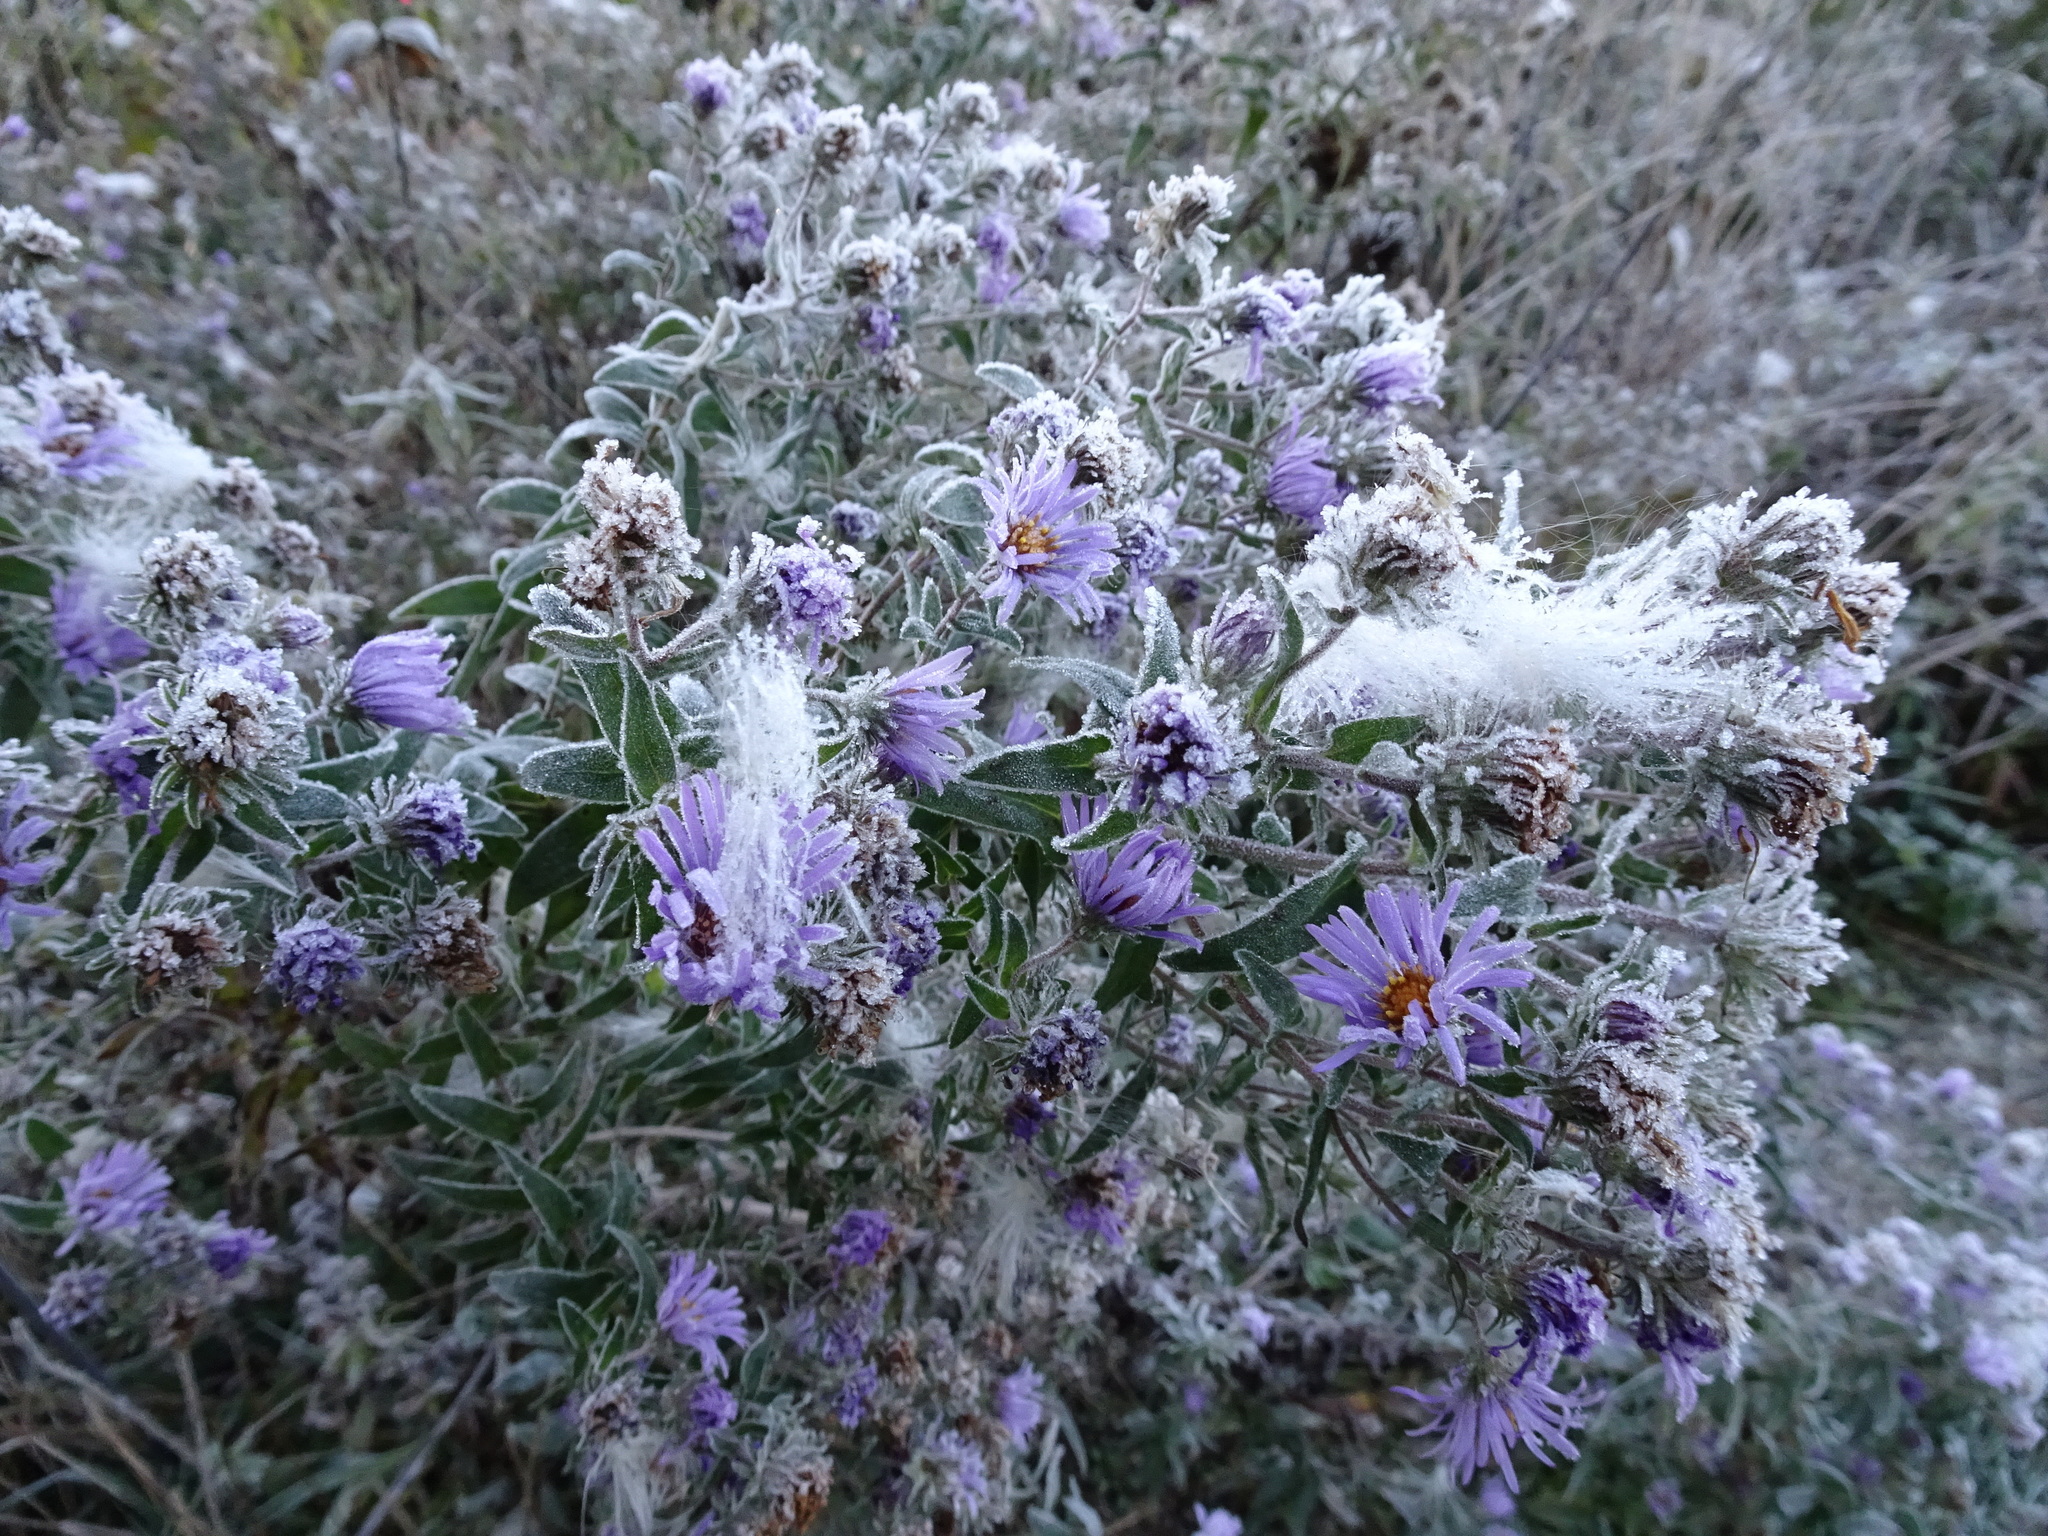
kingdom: Plantae
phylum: Tracheophyta
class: Magnoliopsida
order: Asterales
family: Asteraceae
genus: Symphyotrichum
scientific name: Symphyotrichum novae-angliae
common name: Michaelmas daisy
